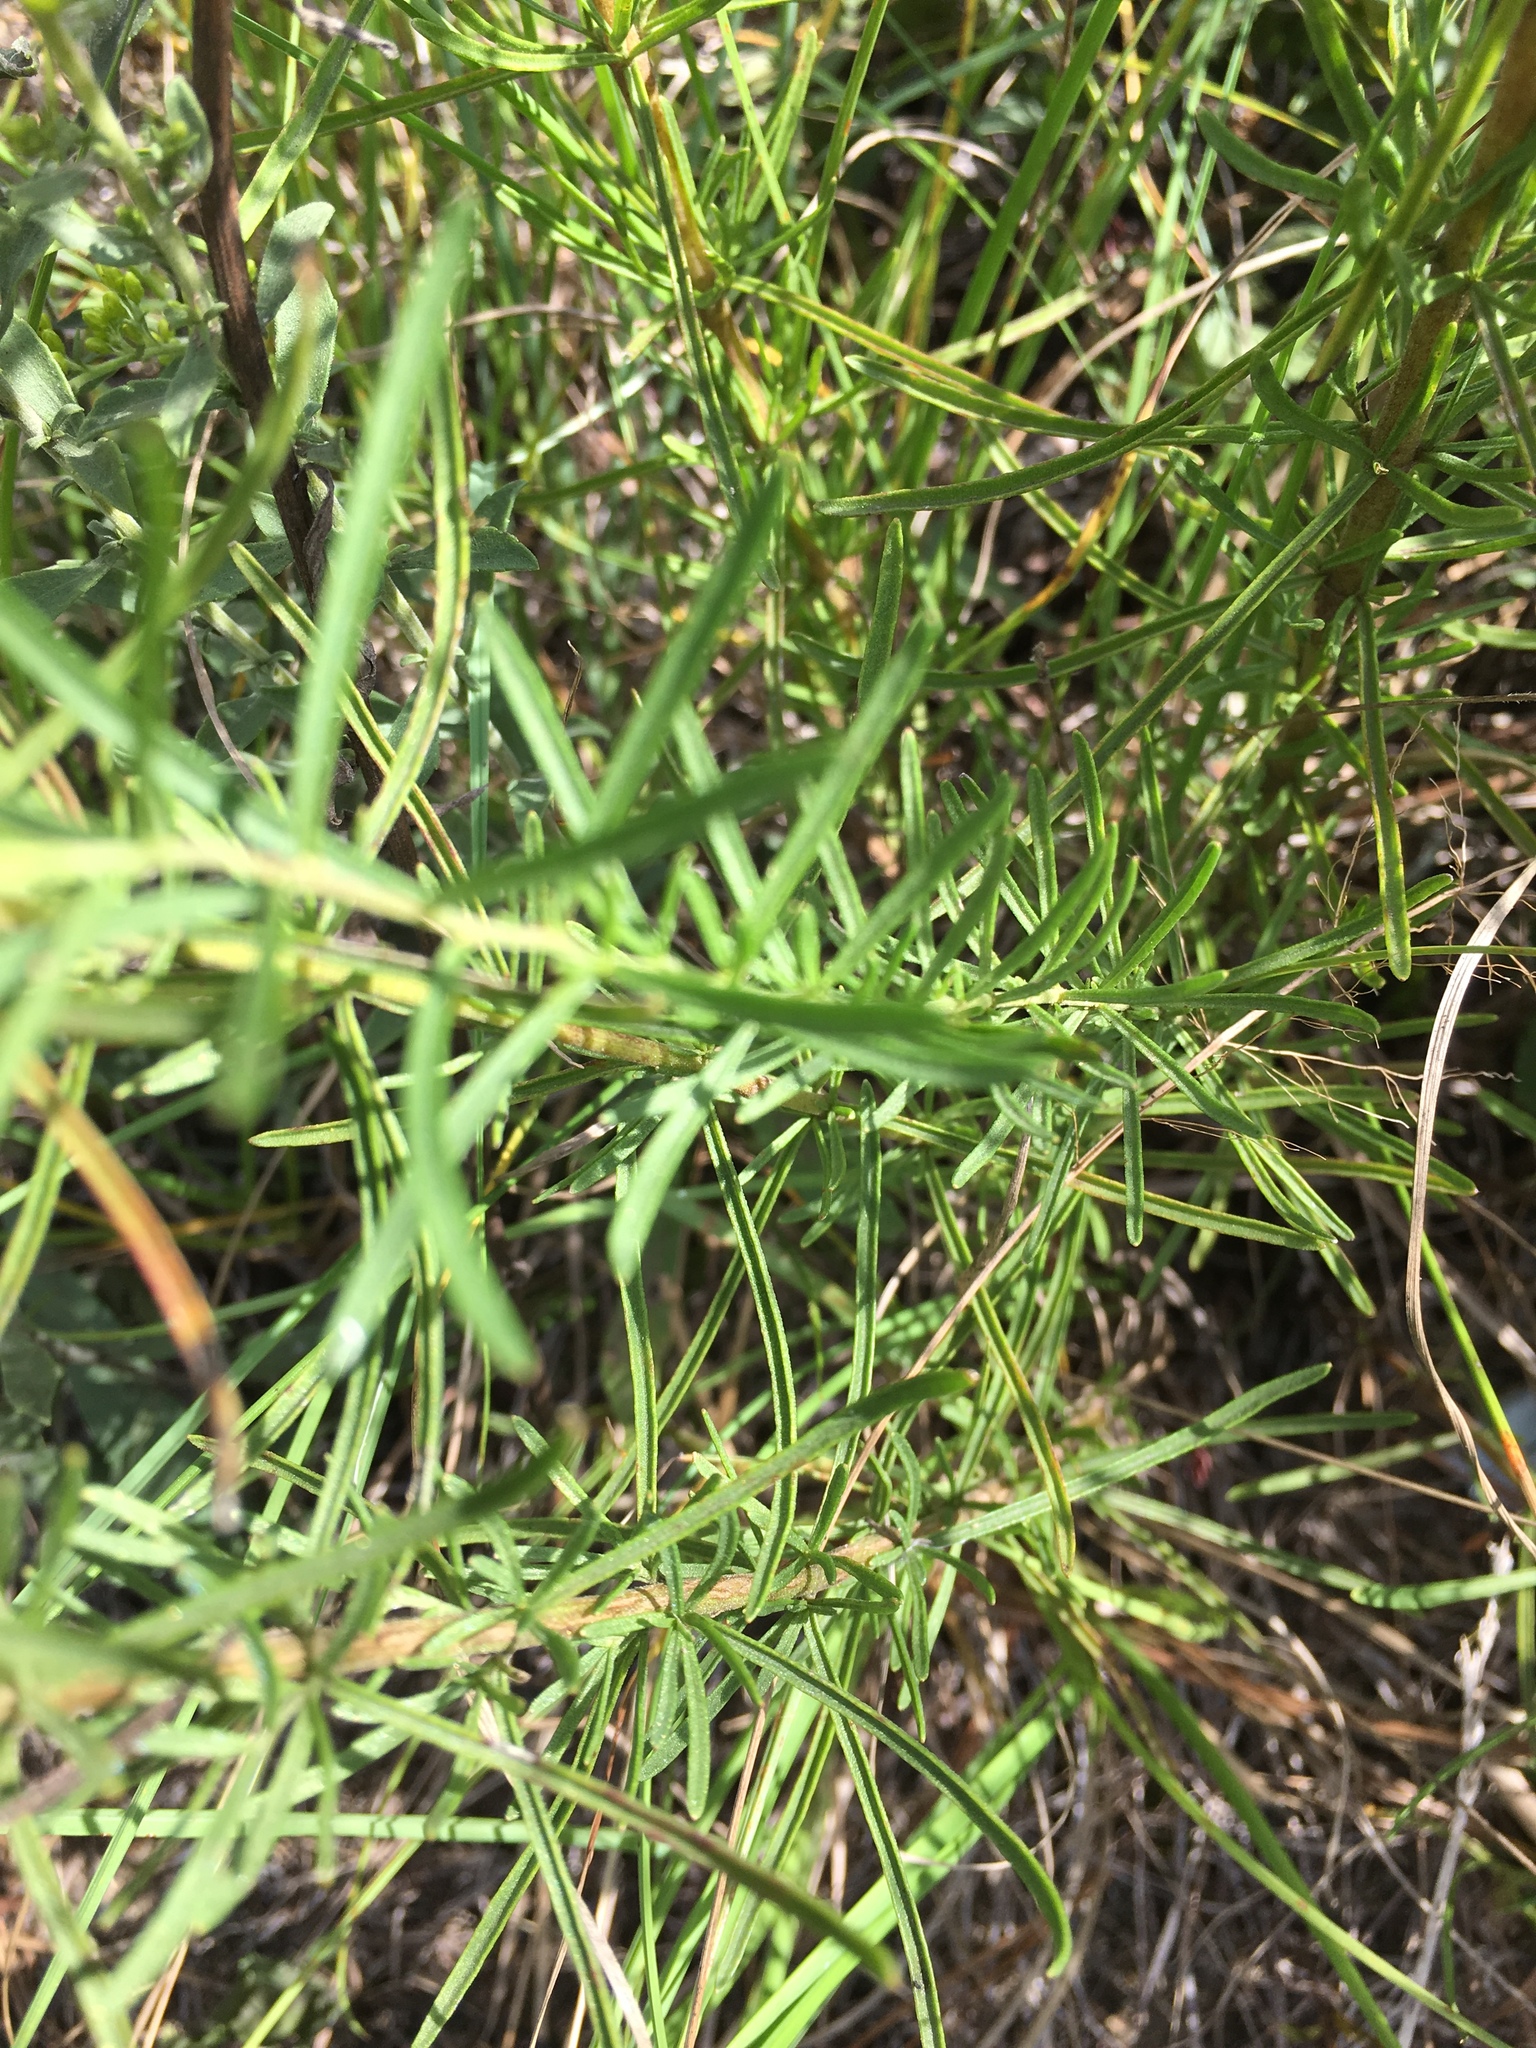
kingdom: Plantae
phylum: Tracheophyta
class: Magnoliopsida
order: Asterales
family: Asteraceae
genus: Eupatorium
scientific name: Eupatorium hyssopifolium
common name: Hyssop-leaf thoroughwort
